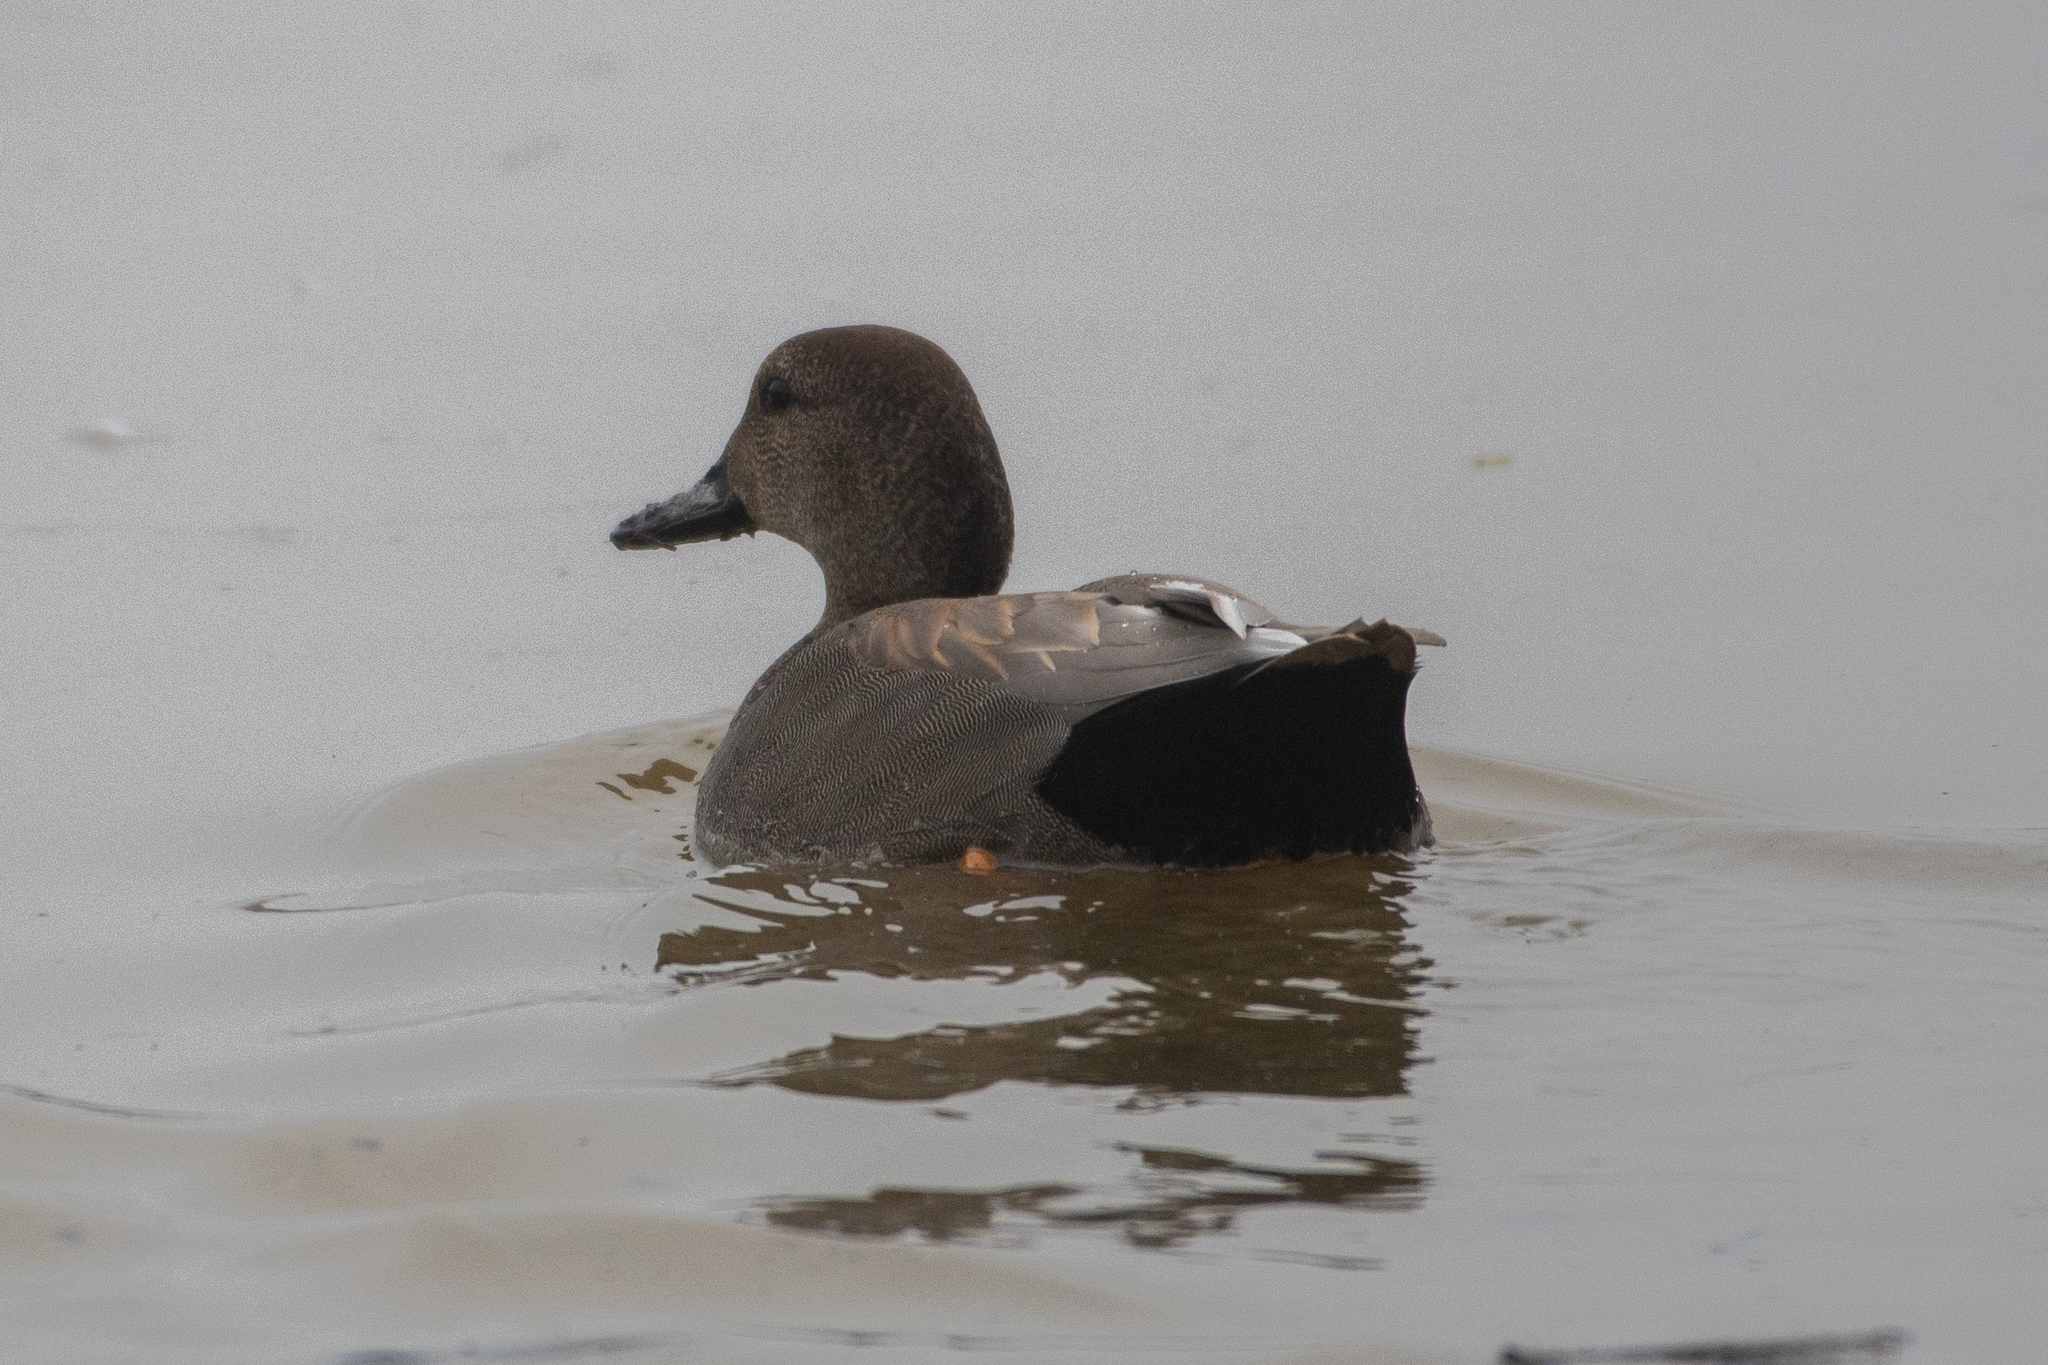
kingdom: Animalia
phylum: Chordata
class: Aves
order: Anseriformes
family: Anatidae
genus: Mareca
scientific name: Mareca strepera
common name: Gadwall
